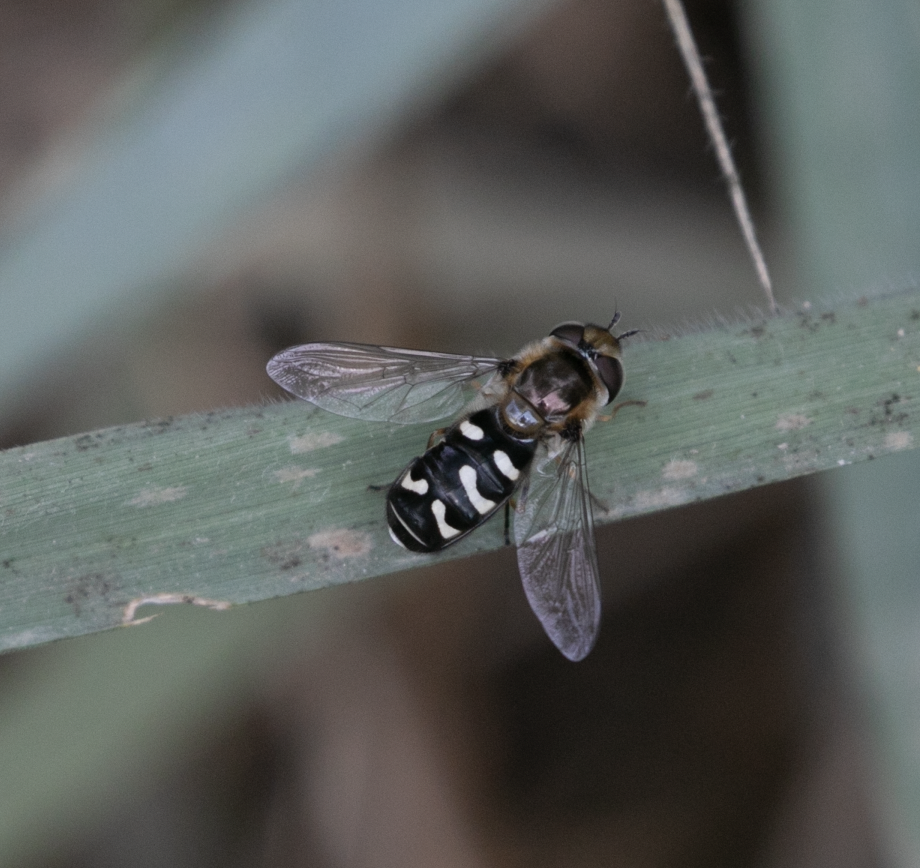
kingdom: Animalia
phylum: Arthropoda
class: Insecta
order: Diptera
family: Syrphidae
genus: Scaeva
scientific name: Scaeva pyrastri
